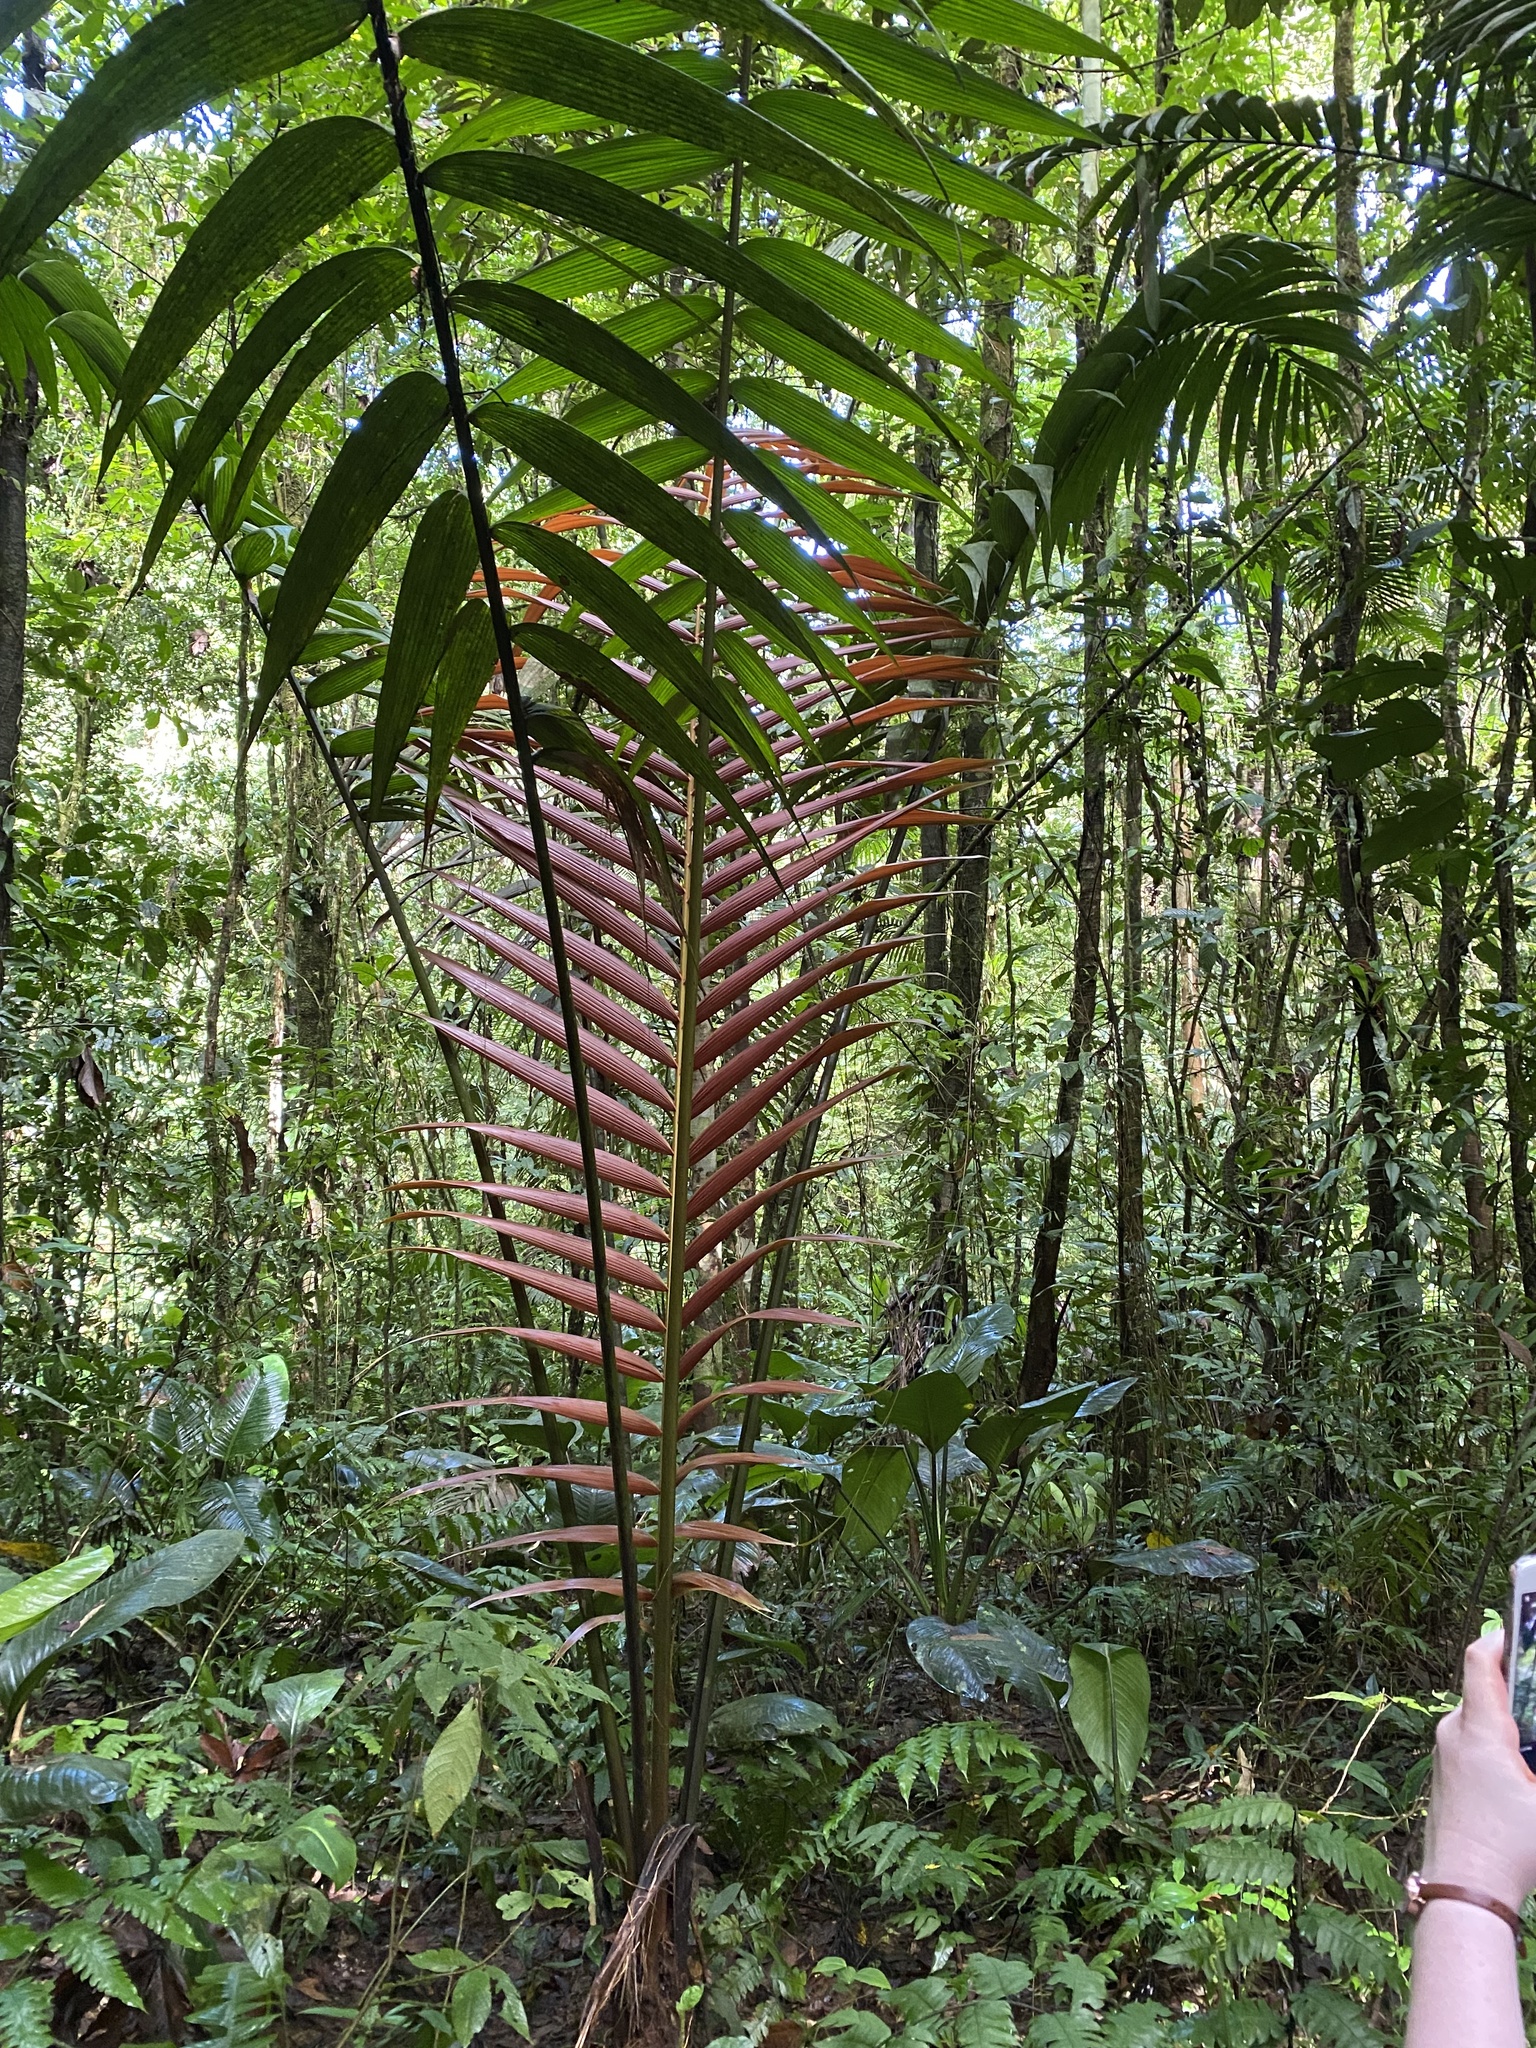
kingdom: Plantae
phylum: Tracheophyta
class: Liliopsida
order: Arecales
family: Arecaceae
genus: Welfia
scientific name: Welfia regia
